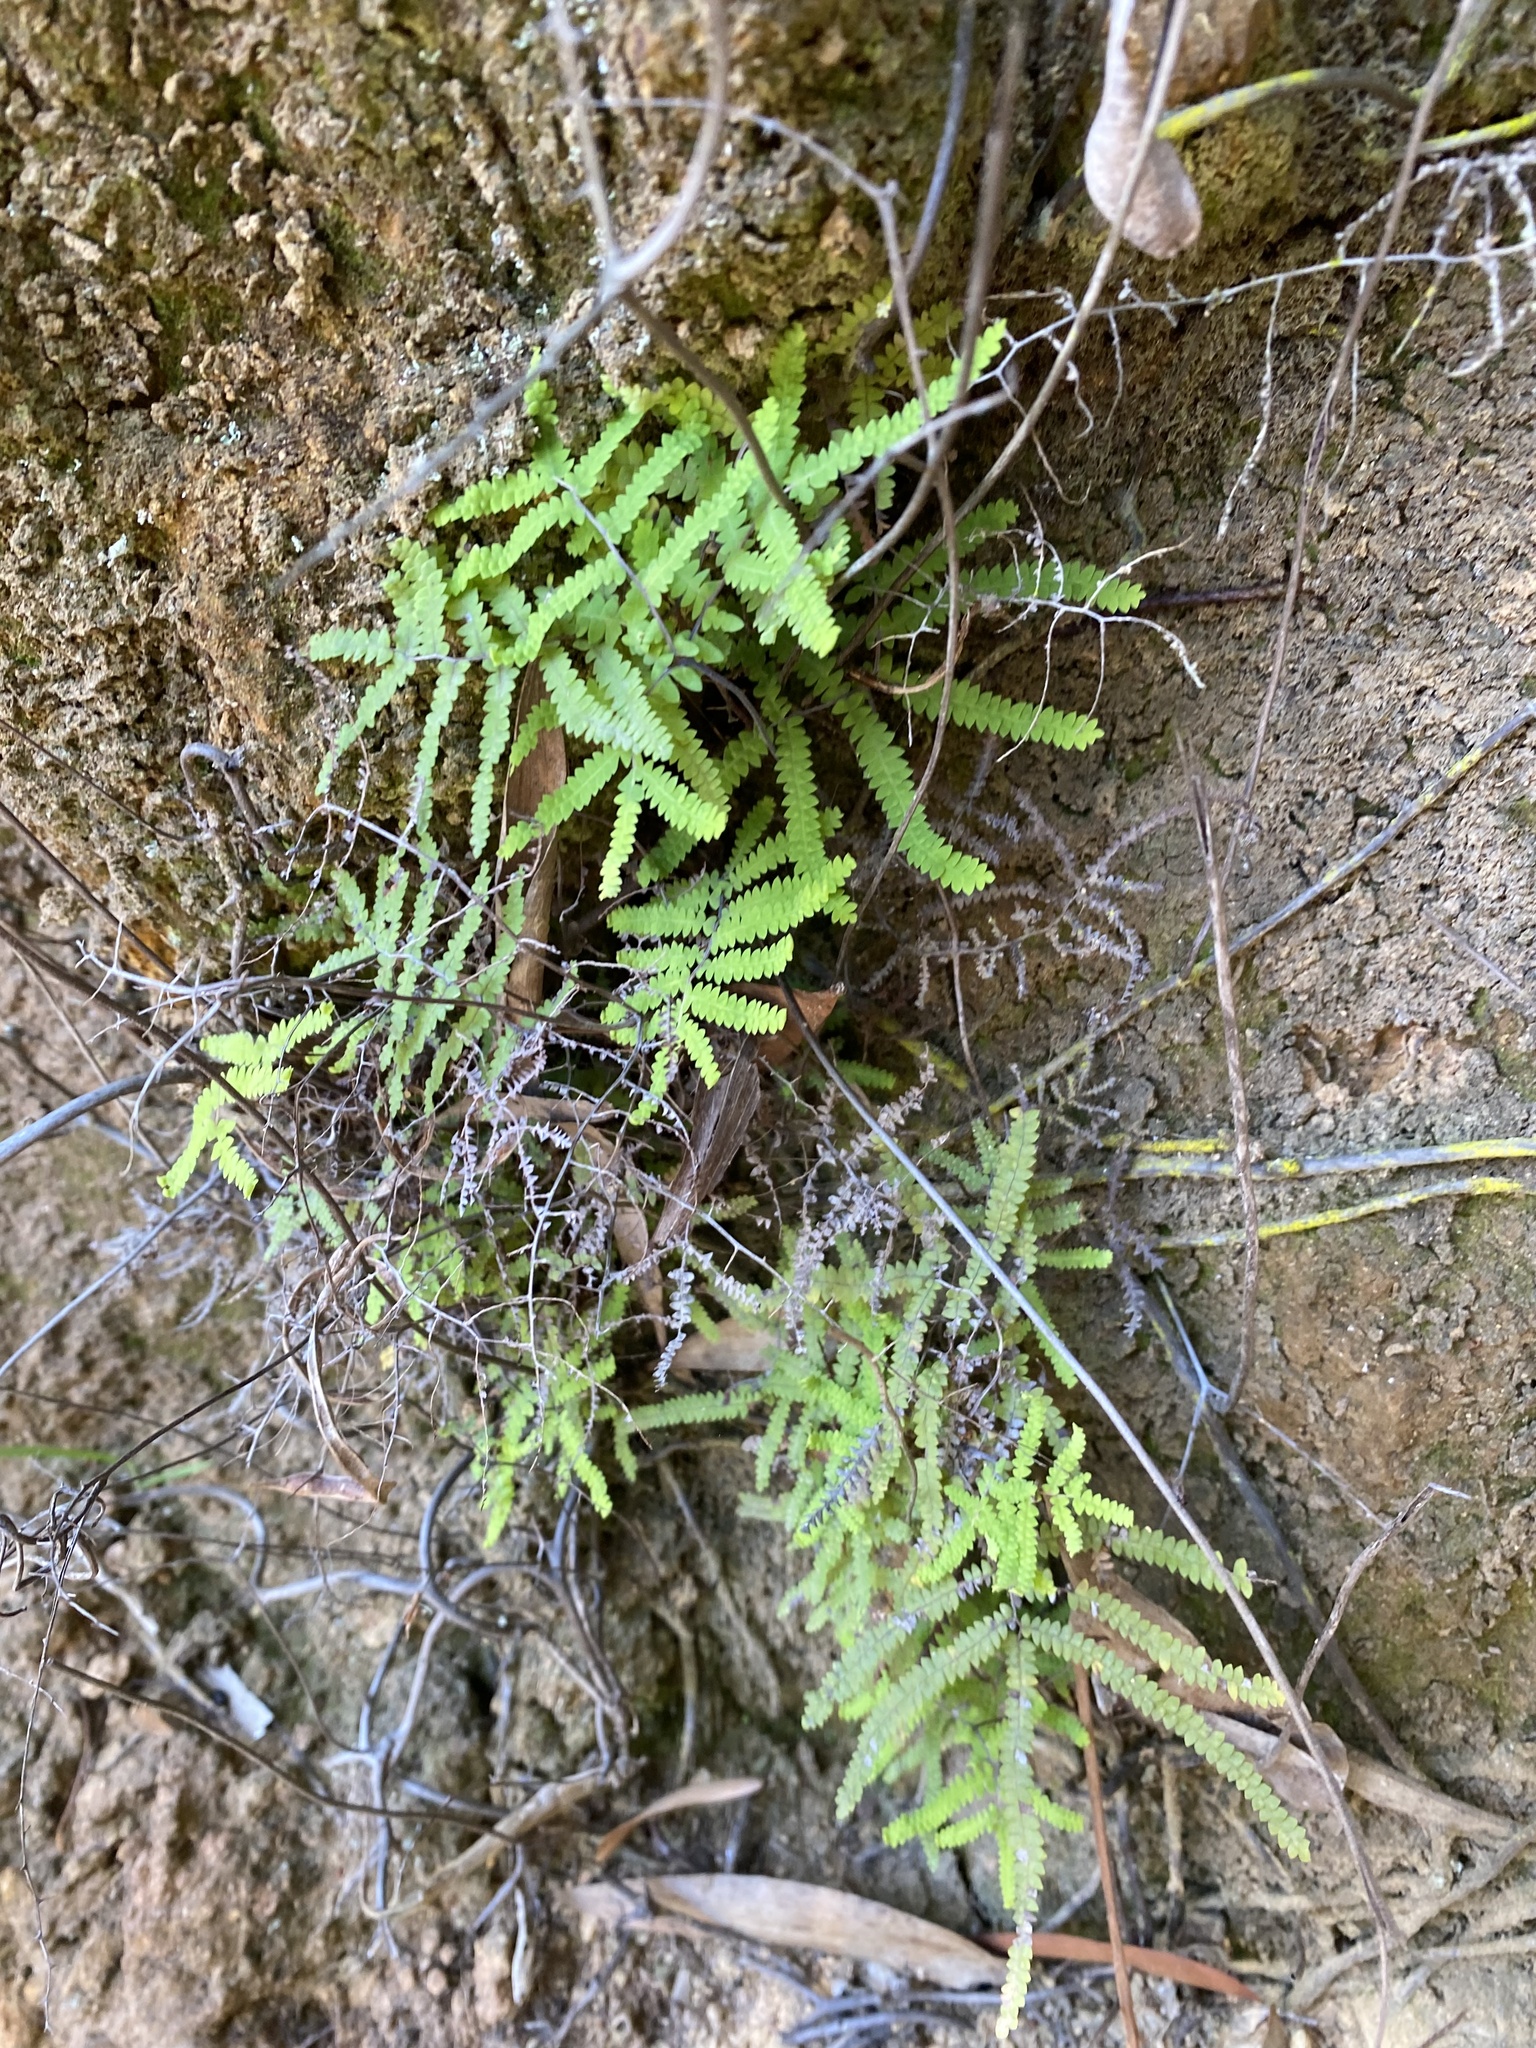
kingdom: Plantae
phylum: Tracheophyta
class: Polypodiopsida
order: Gleicheniales
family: Gleicheniaceae
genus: Gleichenia
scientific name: Gleichenia polypodioides
